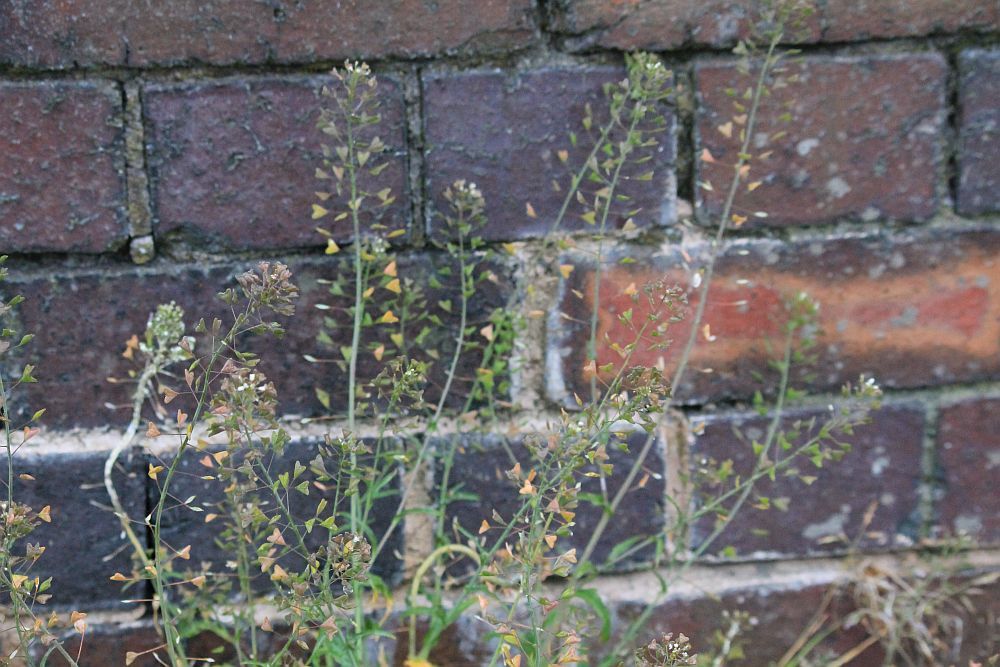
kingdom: Plantae
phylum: Tracheophyta
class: Magnoliopsida
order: Brassicales
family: Brassicaceae
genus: Capsella
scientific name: Capsella bursa-pastoris
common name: Shepherd's purse
